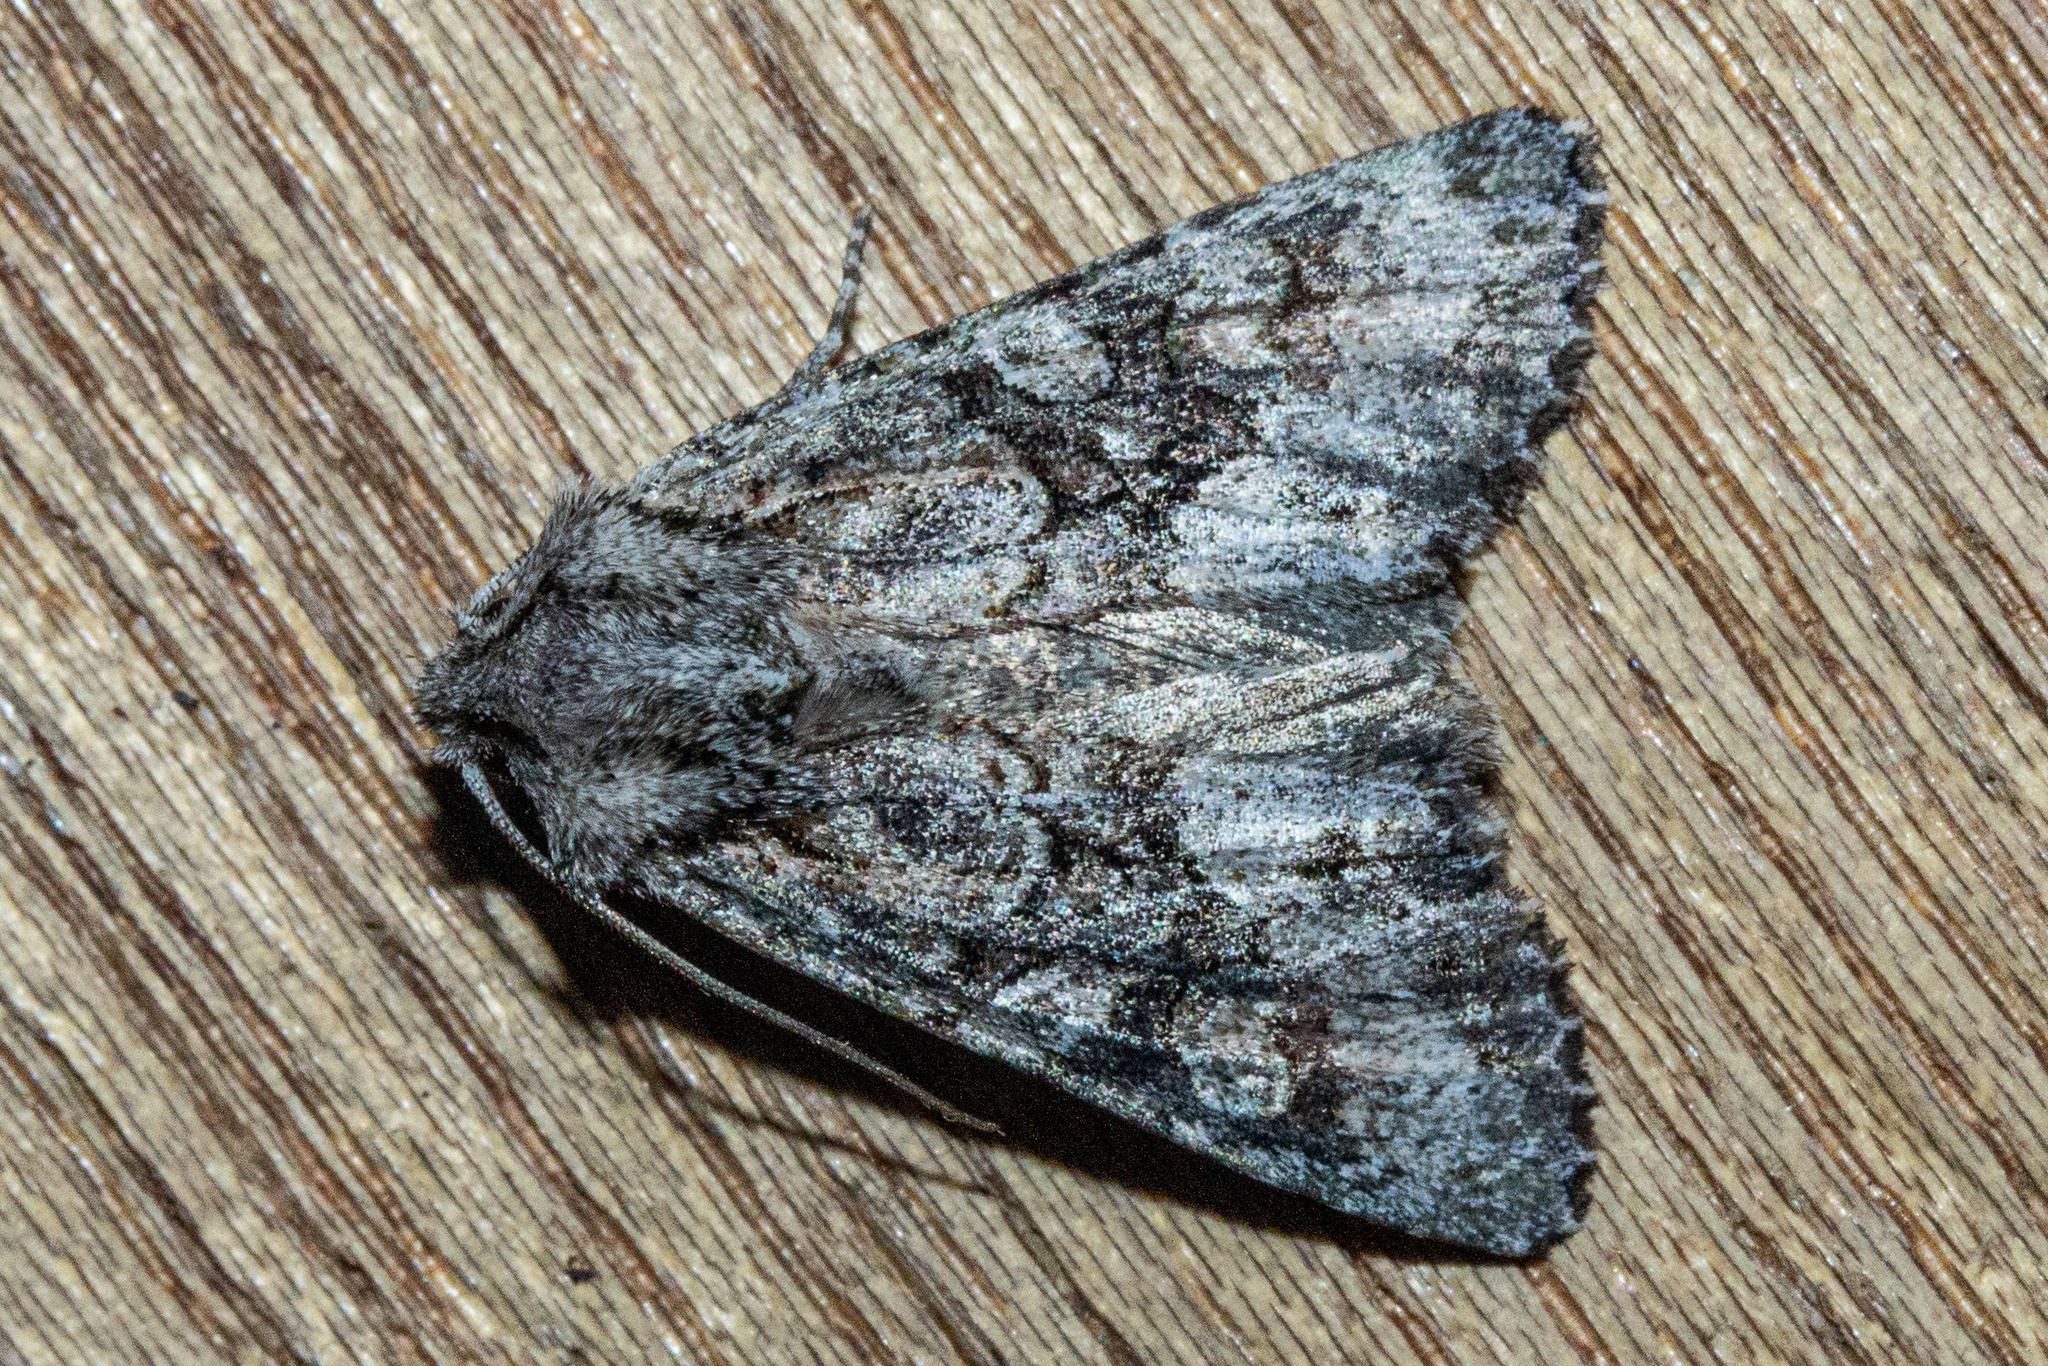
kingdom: Animalia
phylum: Arthropoda
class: Insecta
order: Lepidoptera
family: Noctuidae
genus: Ichneutica
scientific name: Ichneutica mutans
